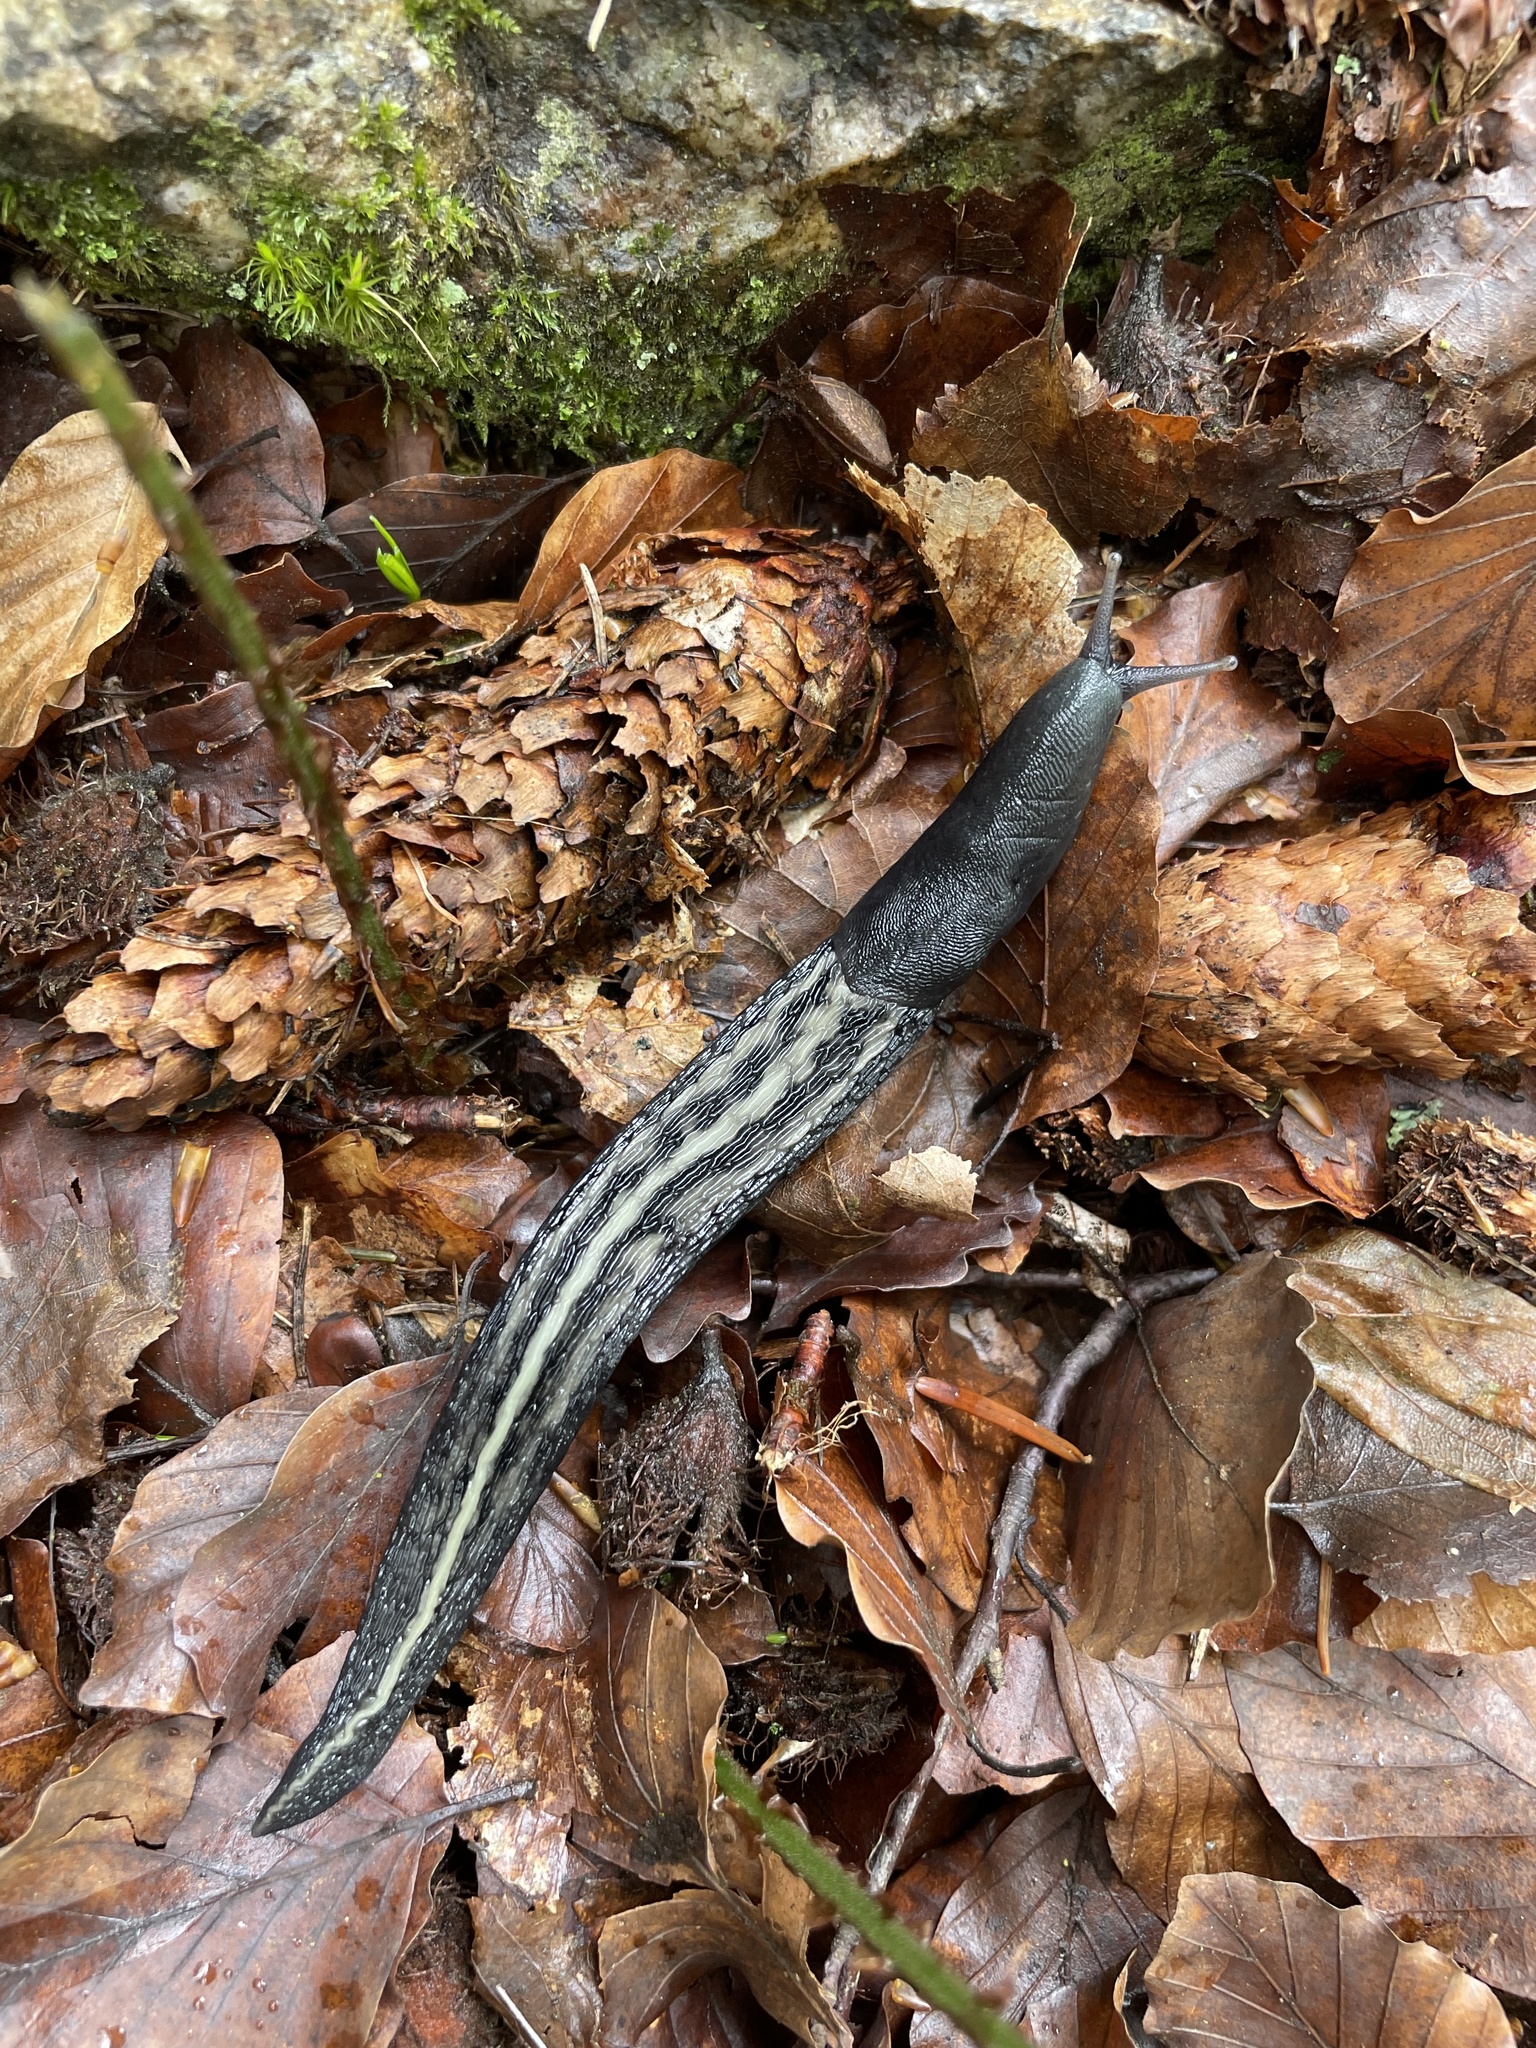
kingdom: Animalia
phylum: Mollusca
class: Gastropoda
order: Stylommatophora
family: Limacidae
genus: Limax
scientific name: Limax cinereoniger
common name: Ash-black slug
